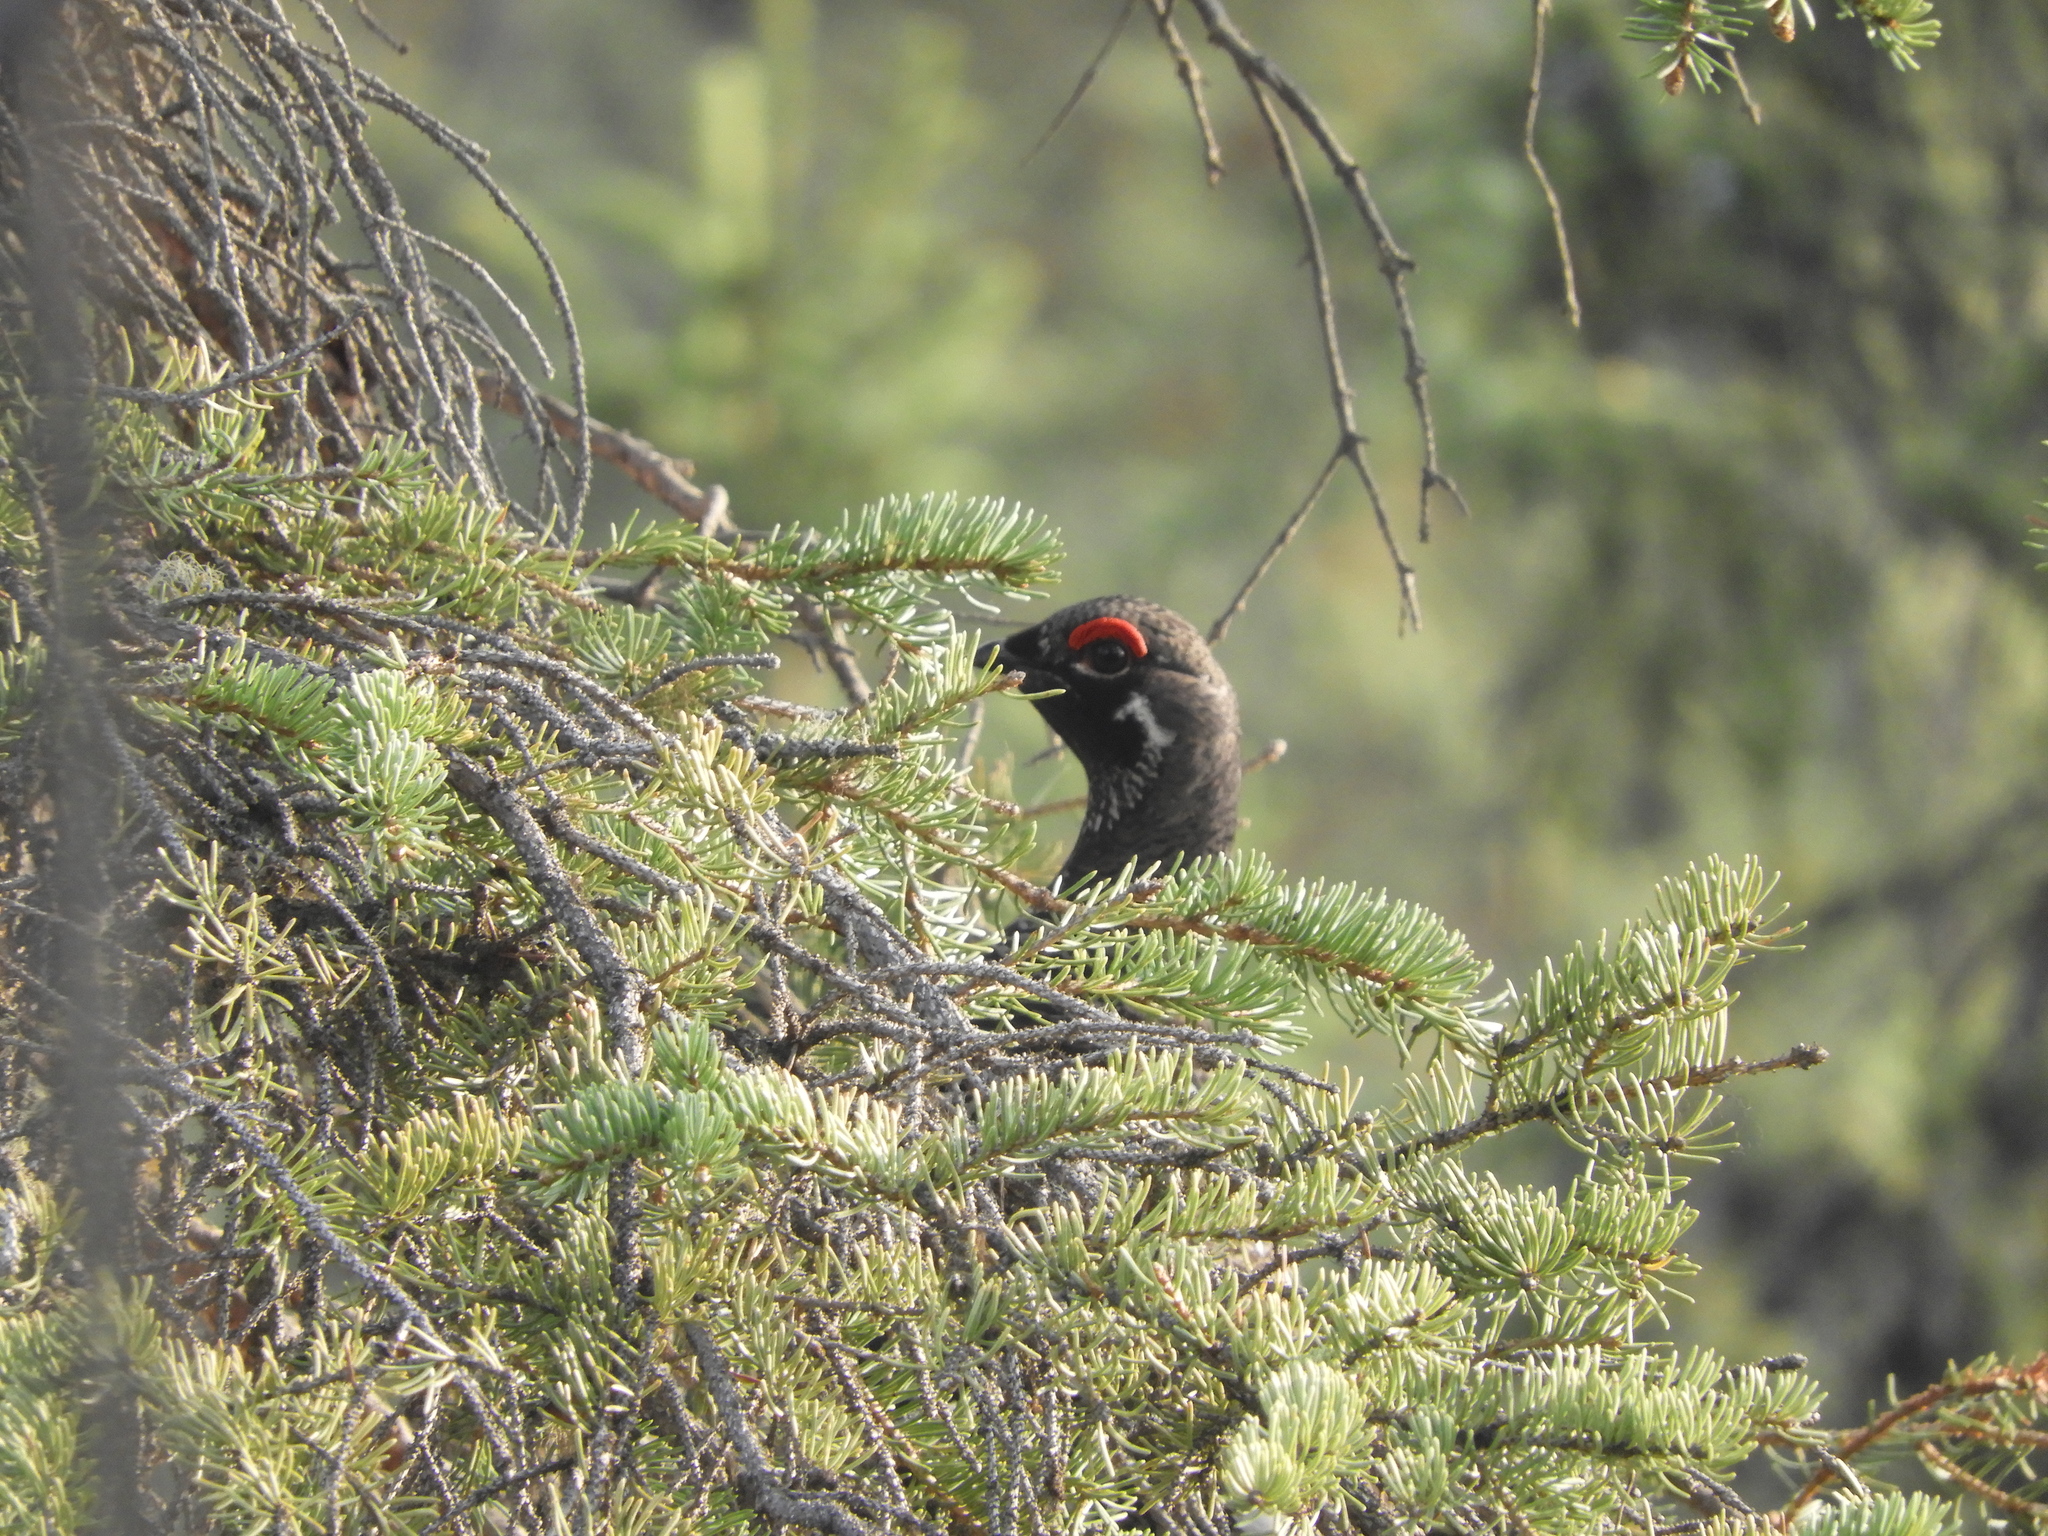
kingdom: Animalia
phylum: Chordata
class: Aves
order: Galliformes
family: Phasianidae
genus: Canachites
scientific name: Canachites canadensis
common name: Spruce grouse
